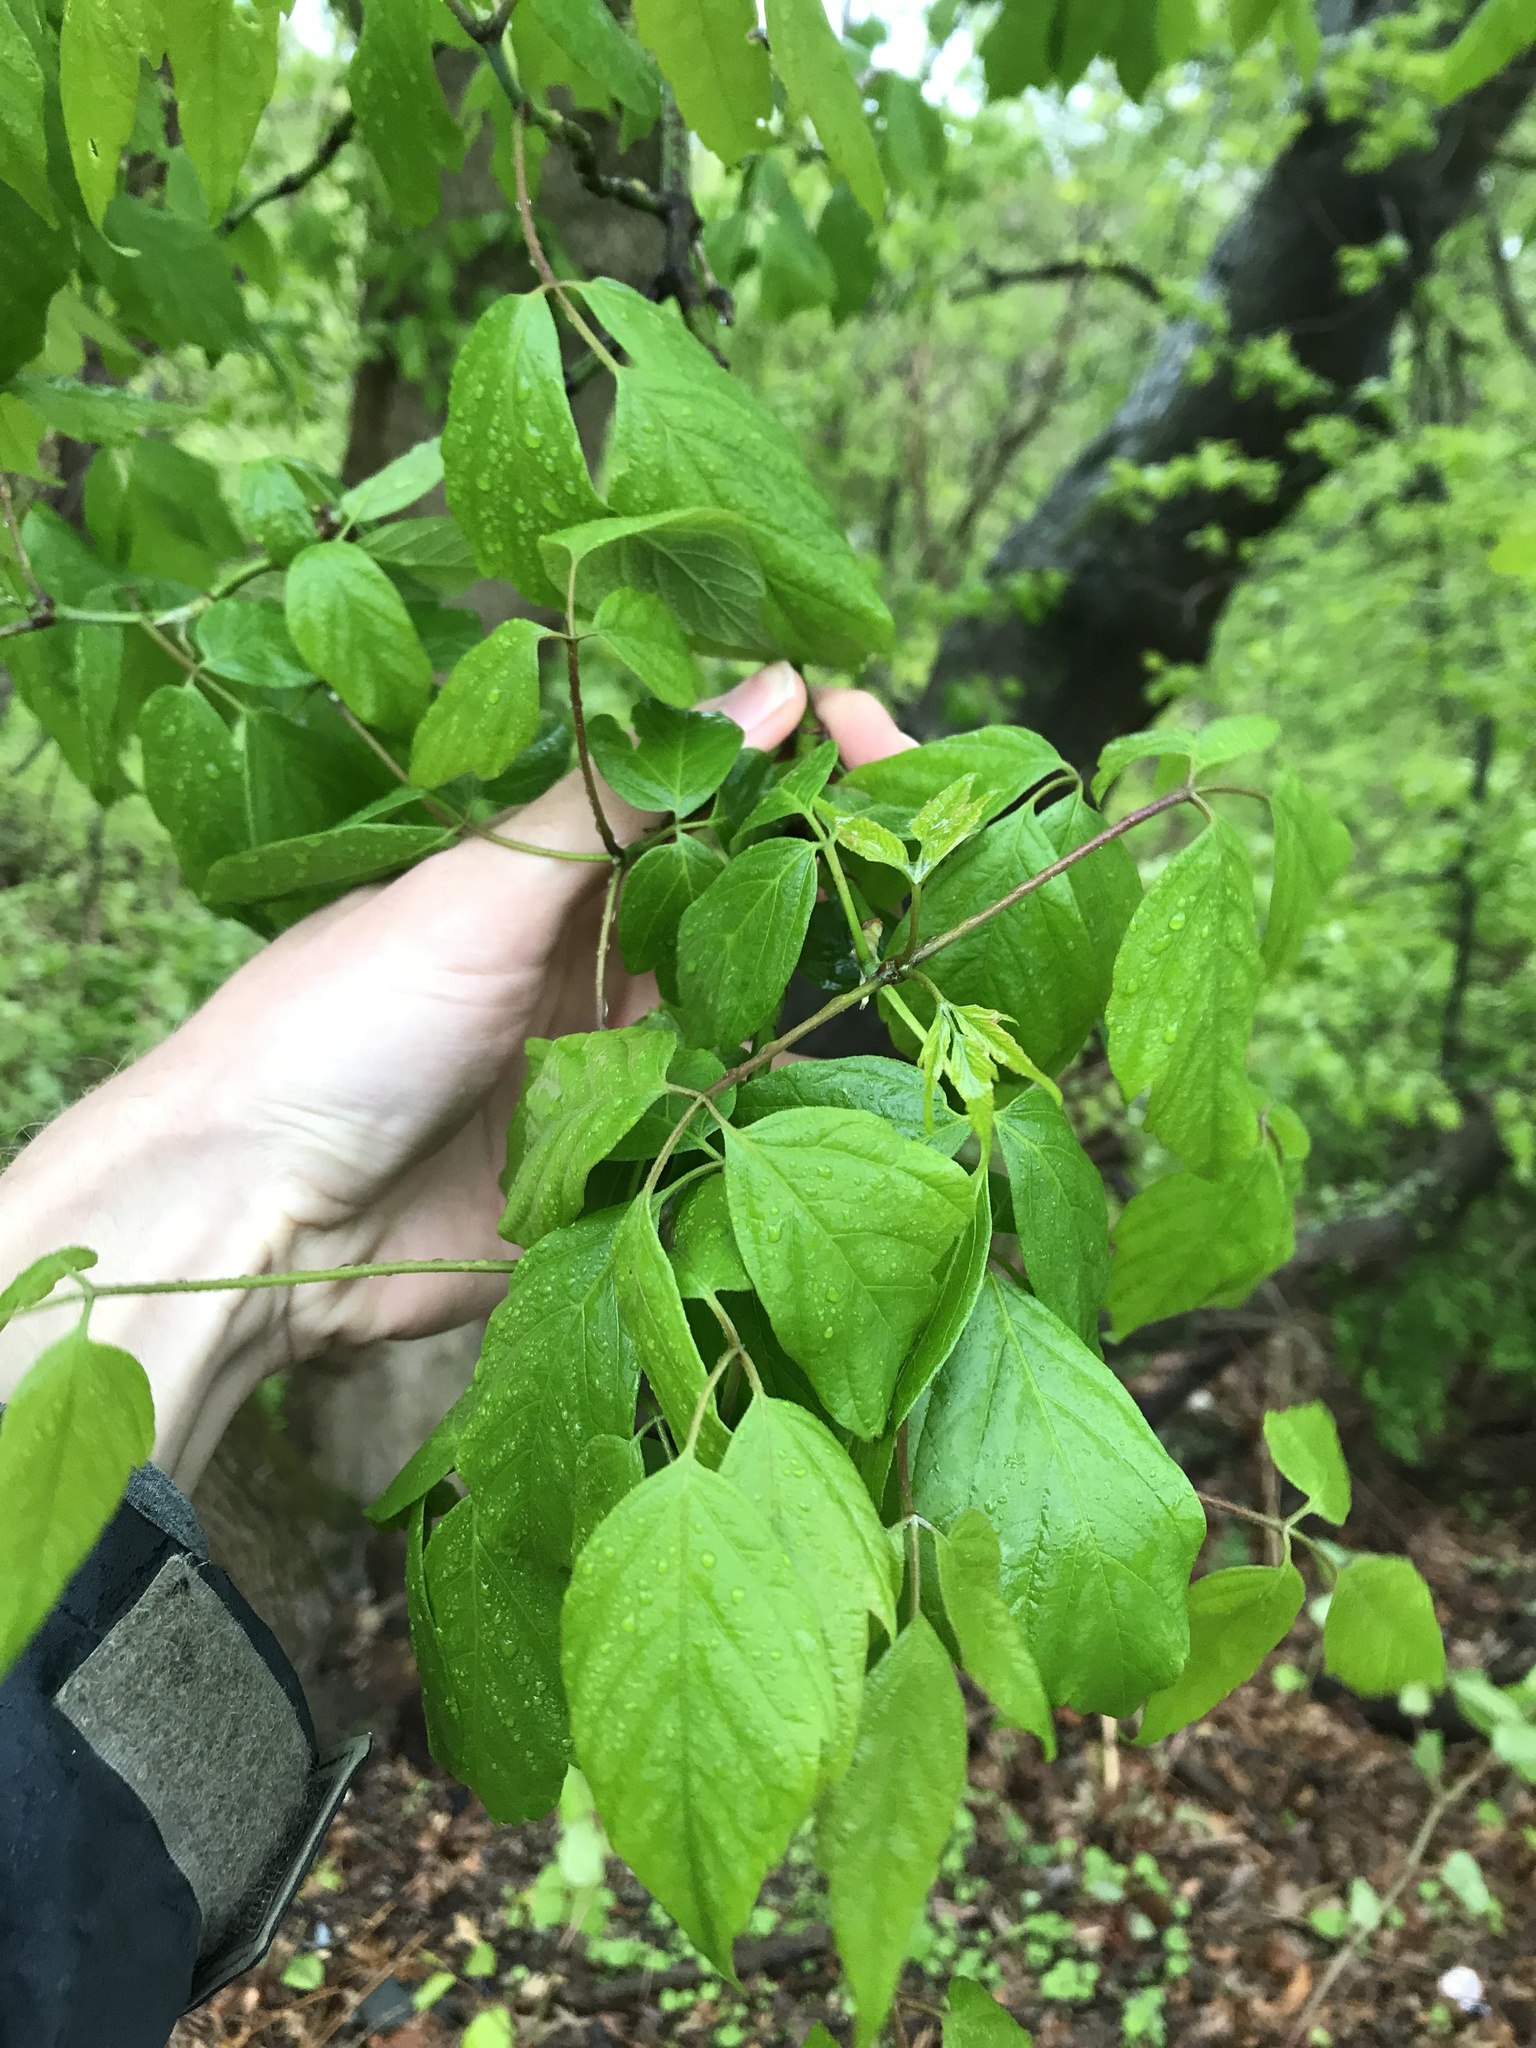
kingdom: Plantae
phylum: Tracheophyta
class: Magnoliopsida
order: Sapindales
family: Sapindaceae
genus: Acer
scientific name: Acer negundo
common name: Ashleaf maple
